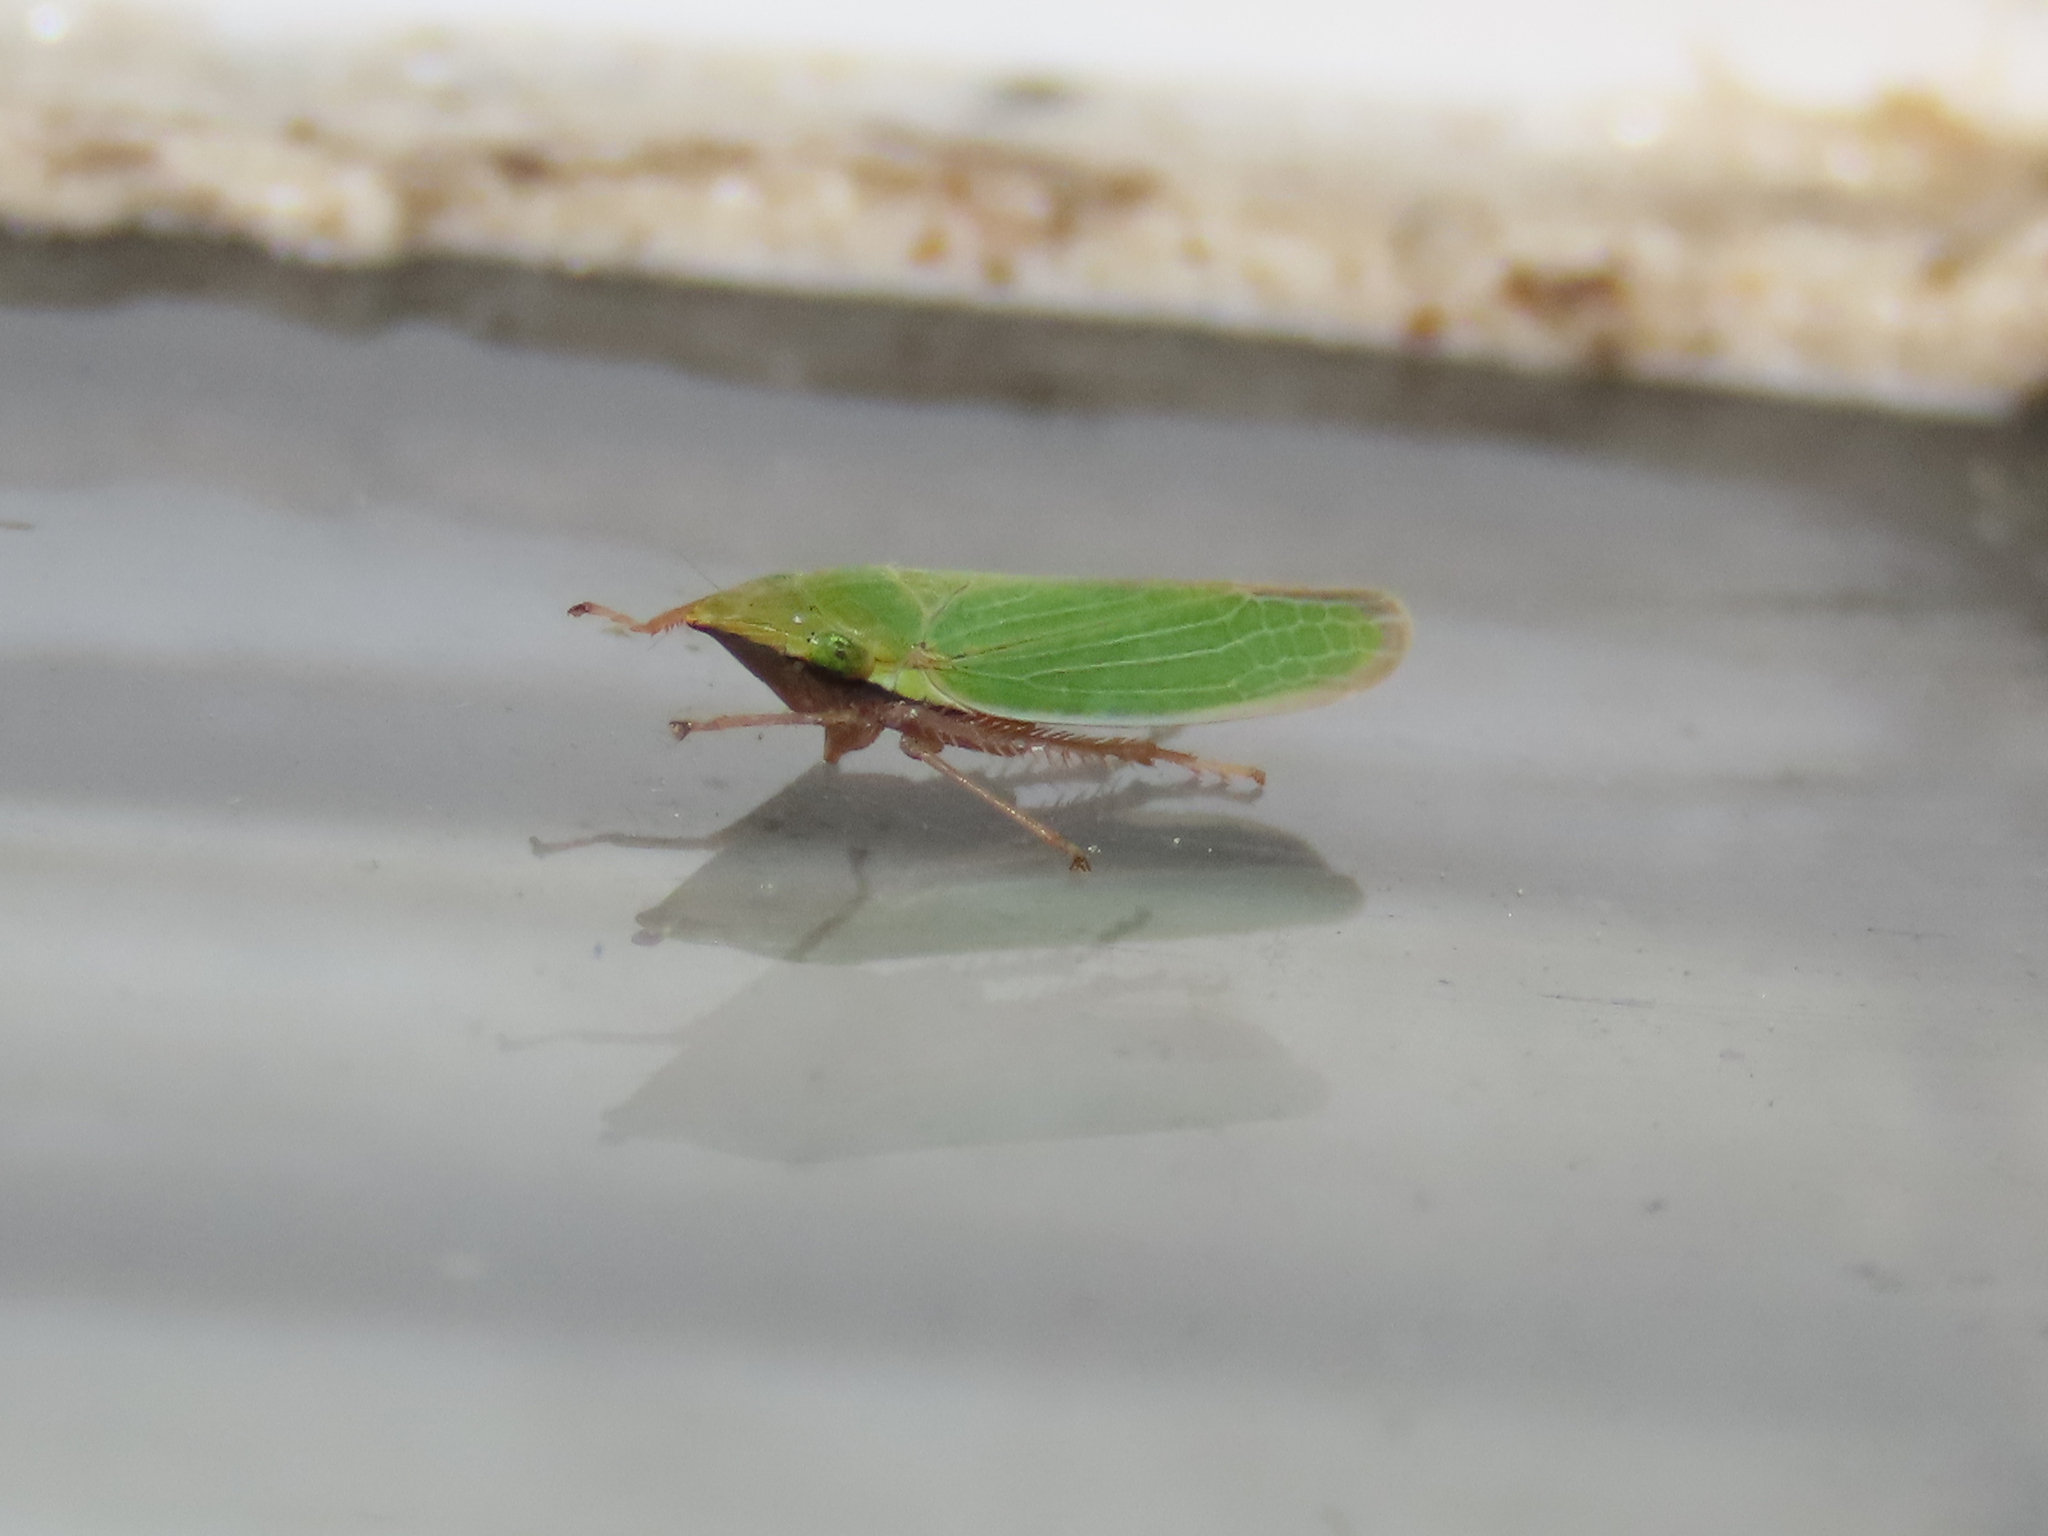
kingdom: Animalia
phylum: Arthropoda
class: Insecta
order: Hemiptera
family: Cicadellidae
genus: Draeculacephala
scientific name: Draeculacephala antica
